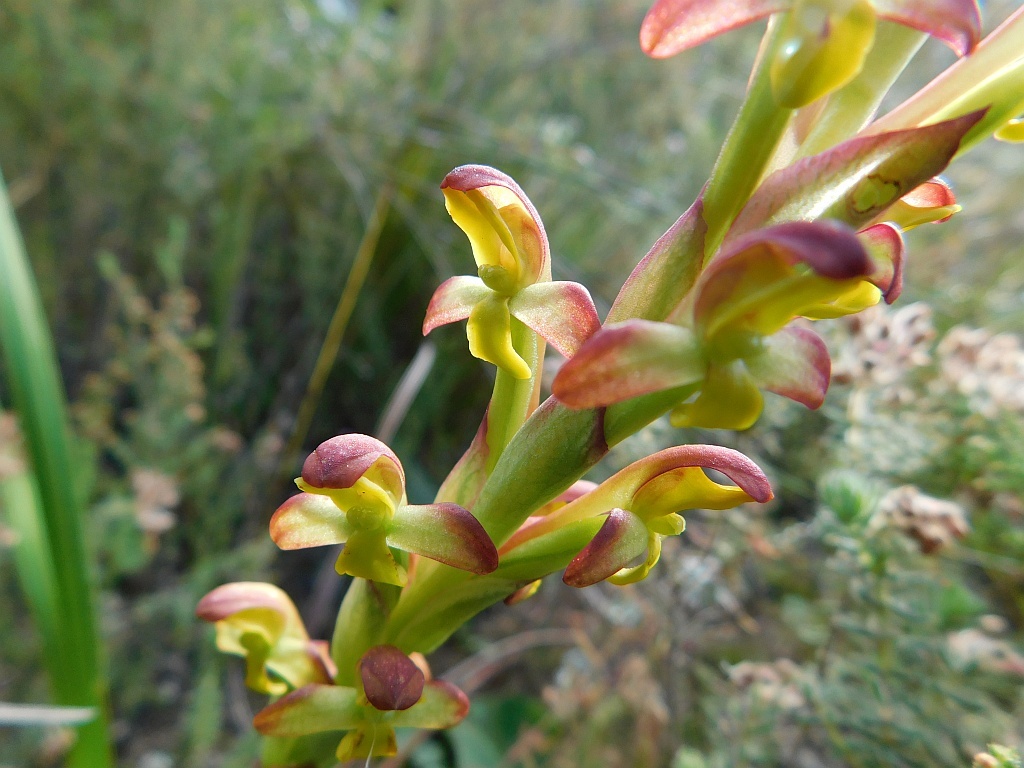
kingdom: Plantae
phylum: Tracheophyta
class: Liliopsida
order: Asparagales
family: Orchidaceae
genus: Disa
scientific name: Disa comosa
